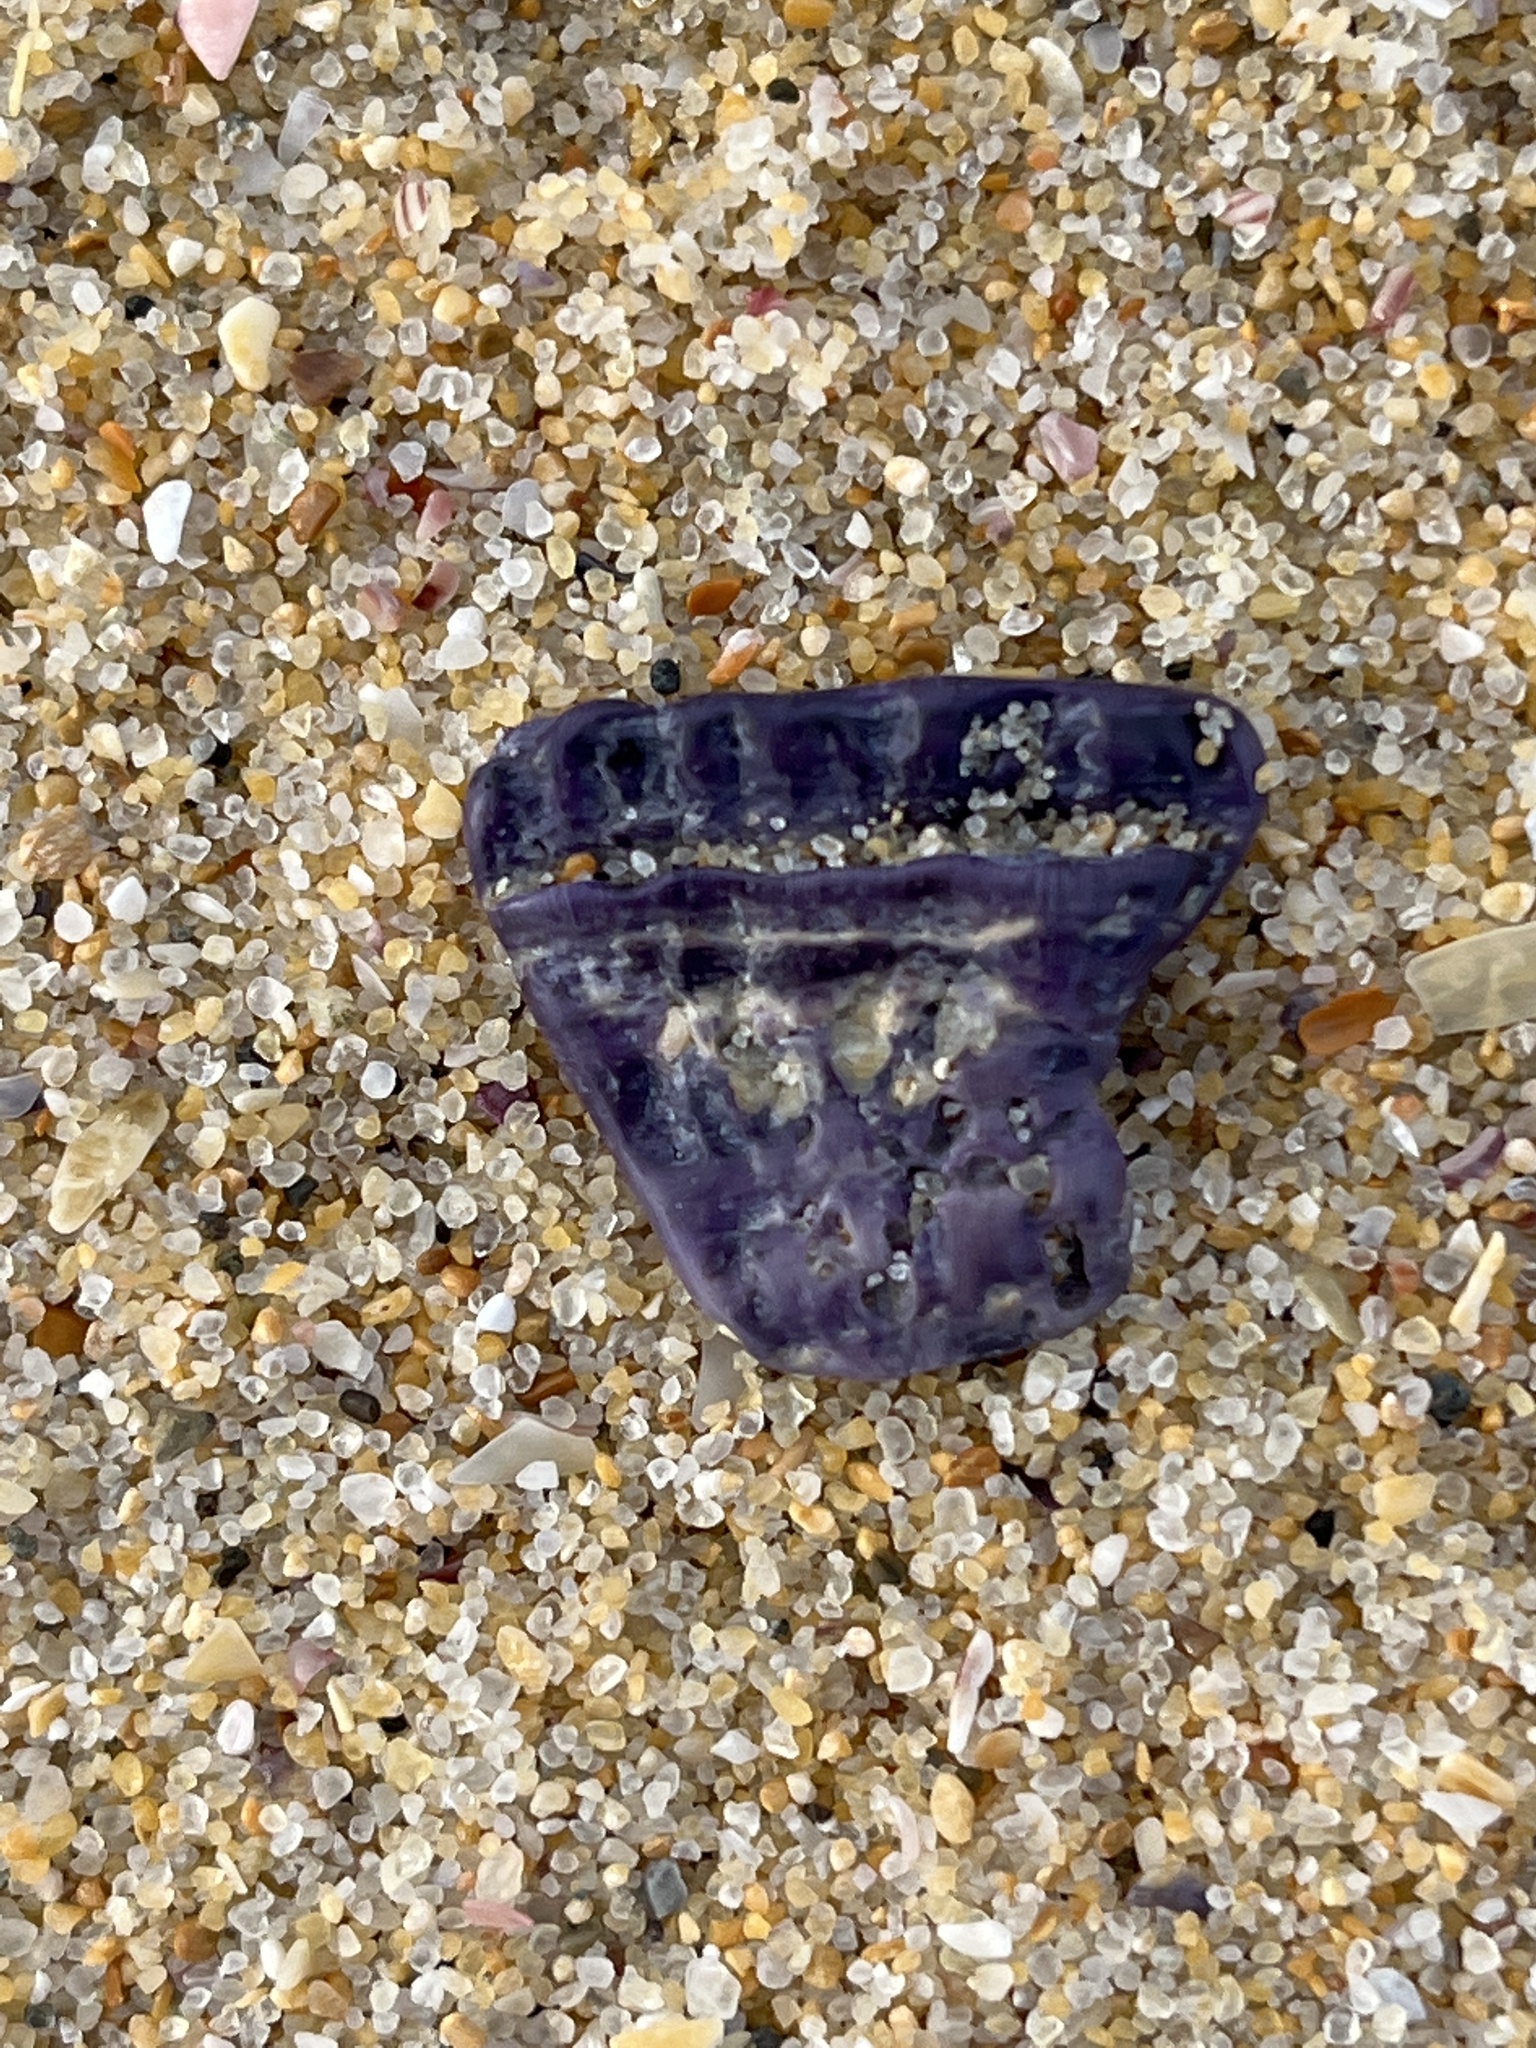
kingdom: Animalia
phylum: Arthropoda
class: Maxillopoda
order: Sessilia
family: Austrobalanidae
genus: Austrobalanus
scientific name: Austrobalanus imperator
